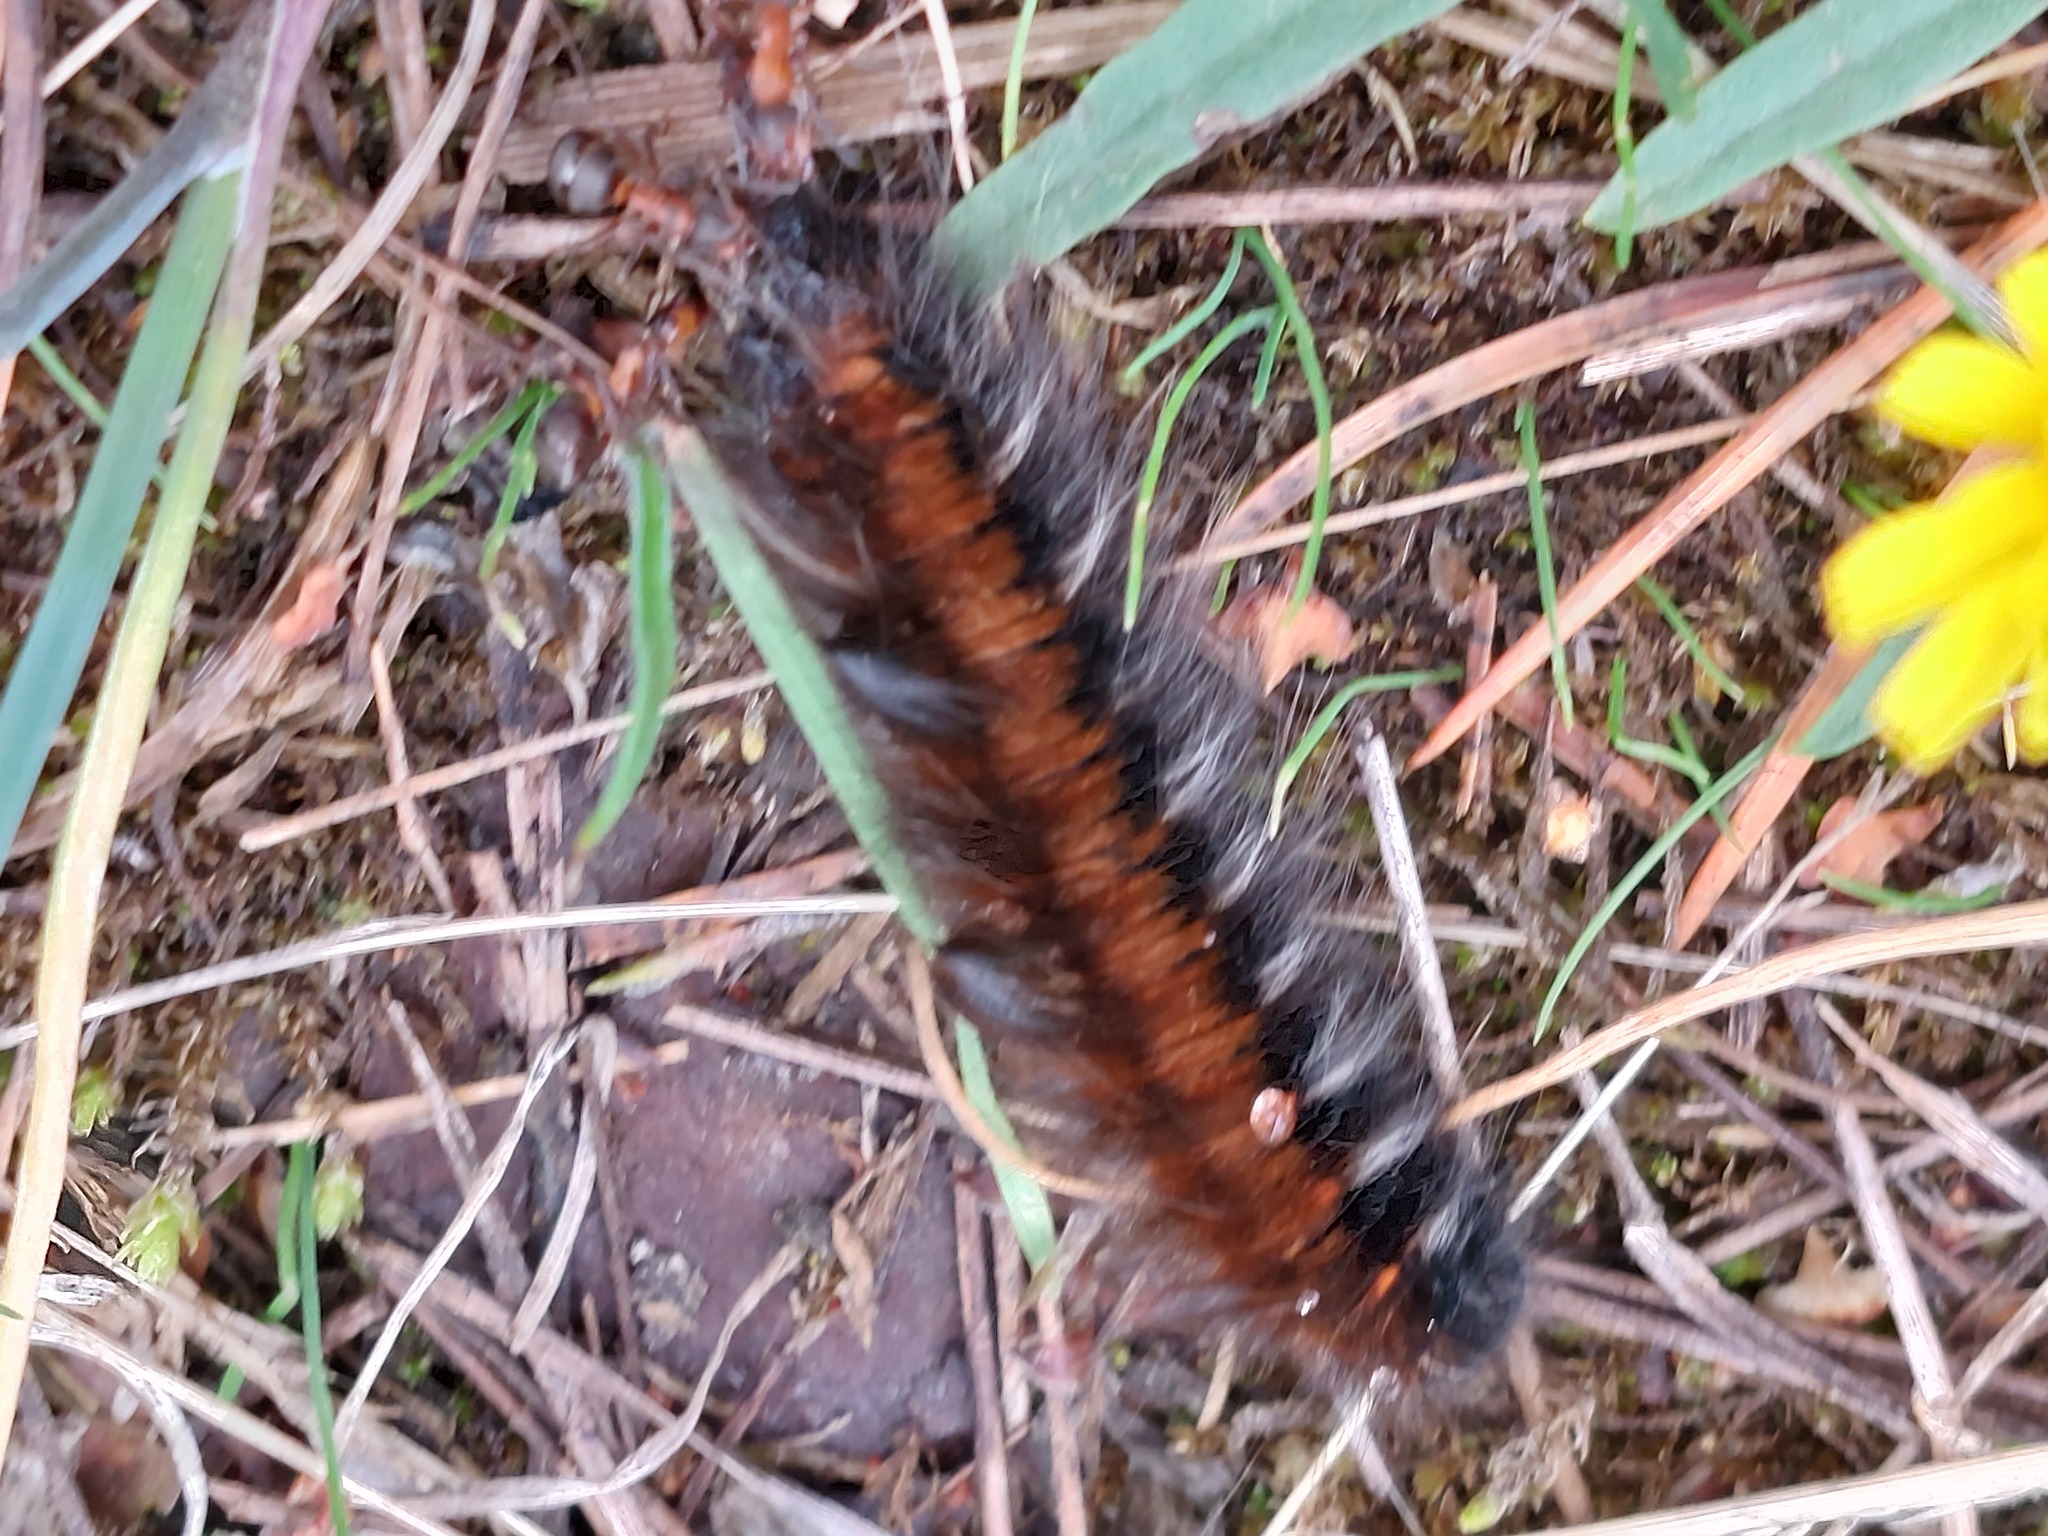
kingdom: Animalia
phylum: Arthropoda
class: Insecta
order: Lepidoptera
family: Lasiocampidae
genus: Macrothylacia
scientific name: Macrothylacia rubi
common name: Fox moth
